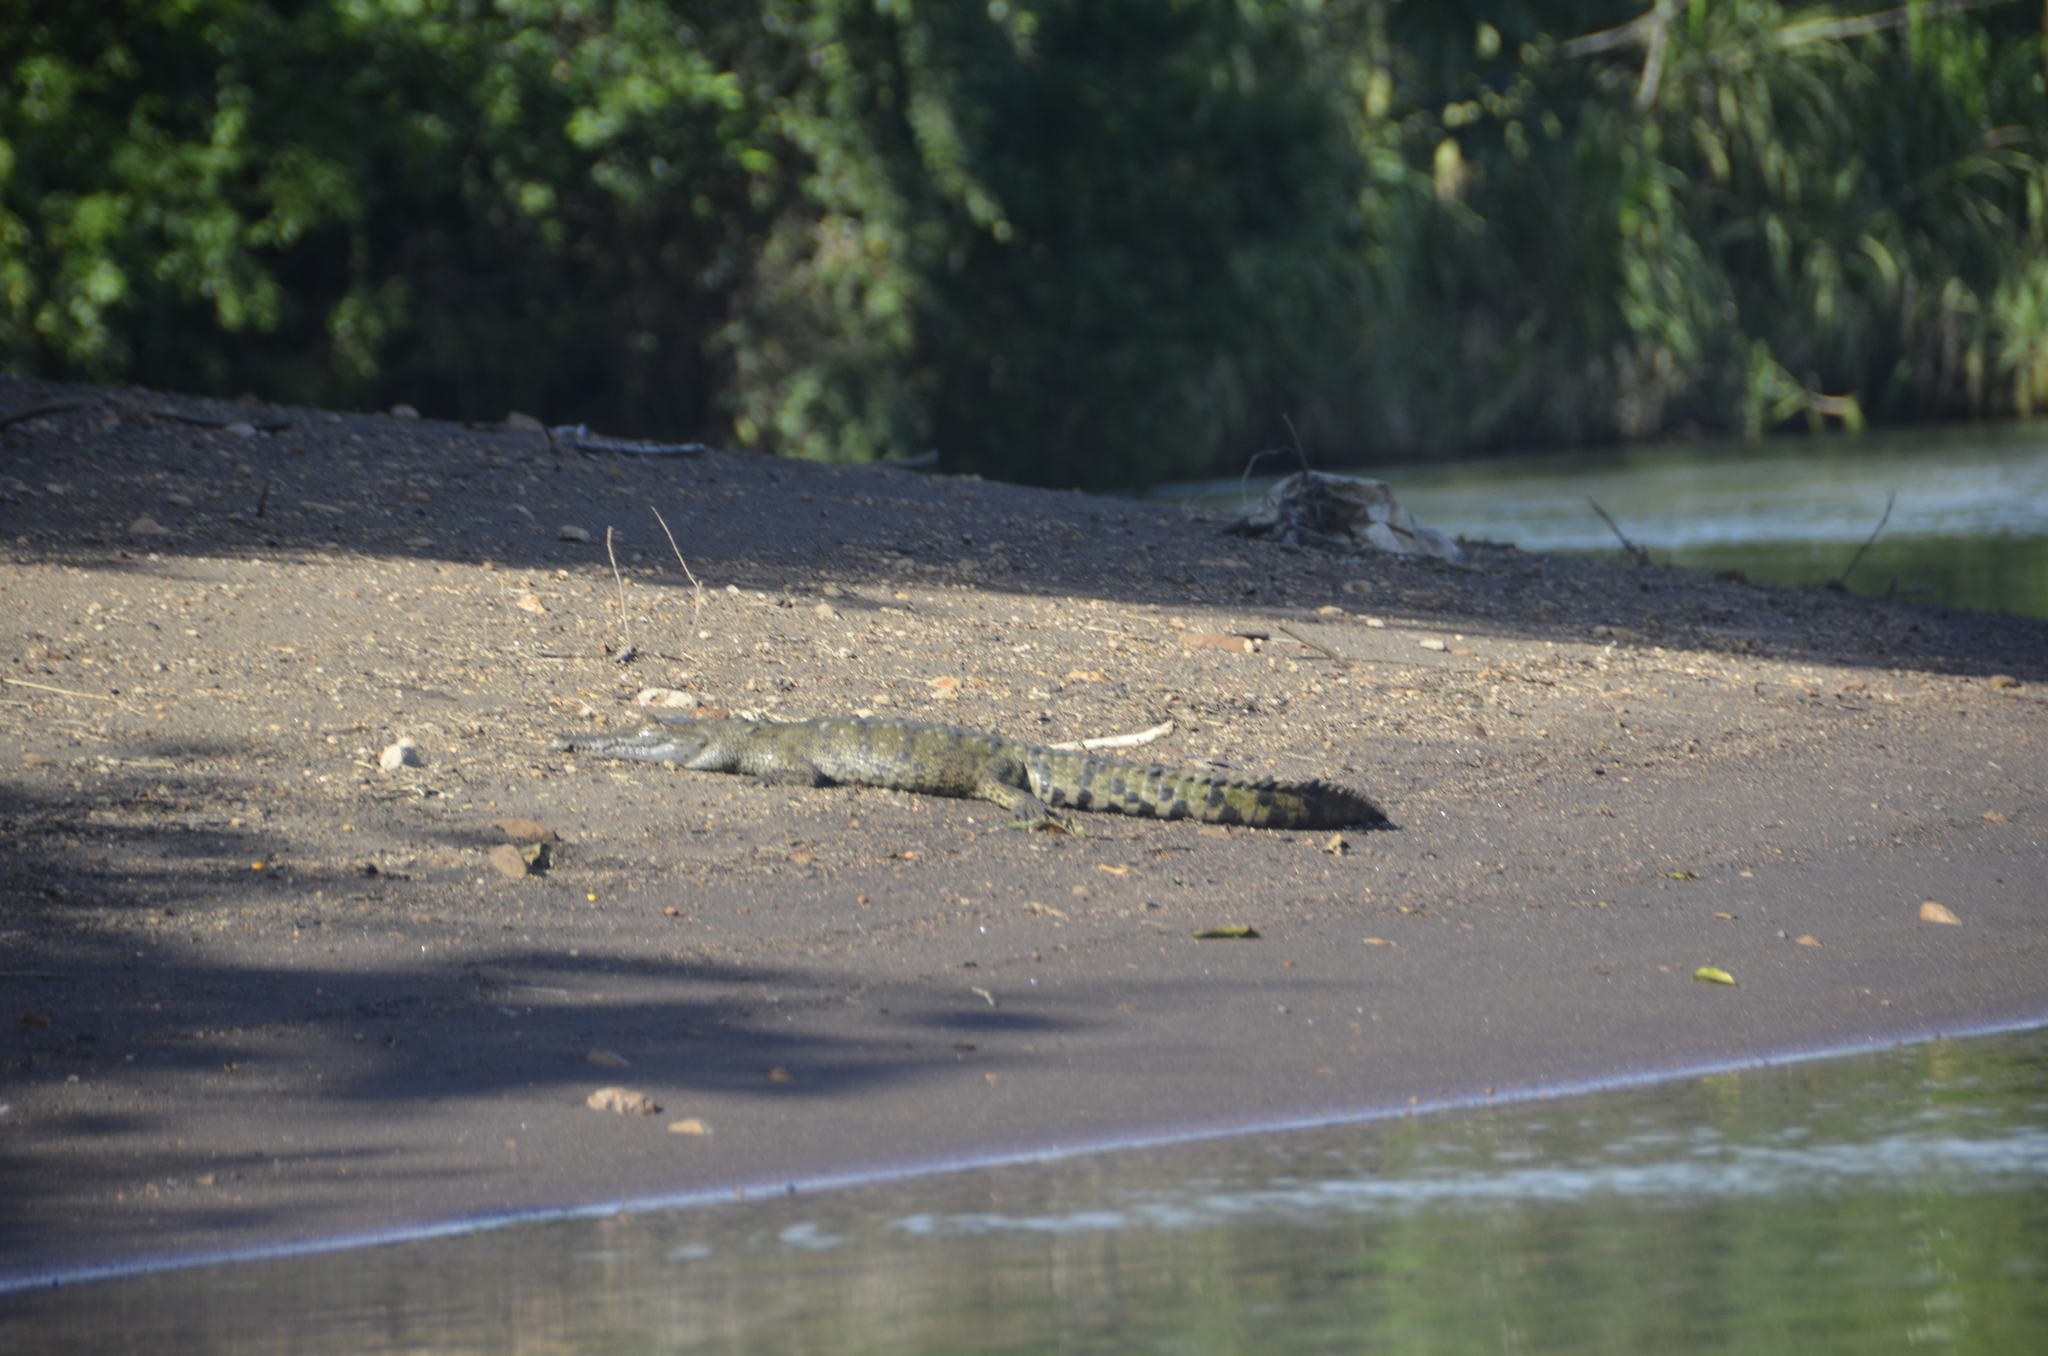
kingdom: Animalia
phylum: Chordata
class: Crocodylia
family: Crocodylidae
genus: Crocodylus
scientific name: Crocodylus acutus
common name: American crocodile
